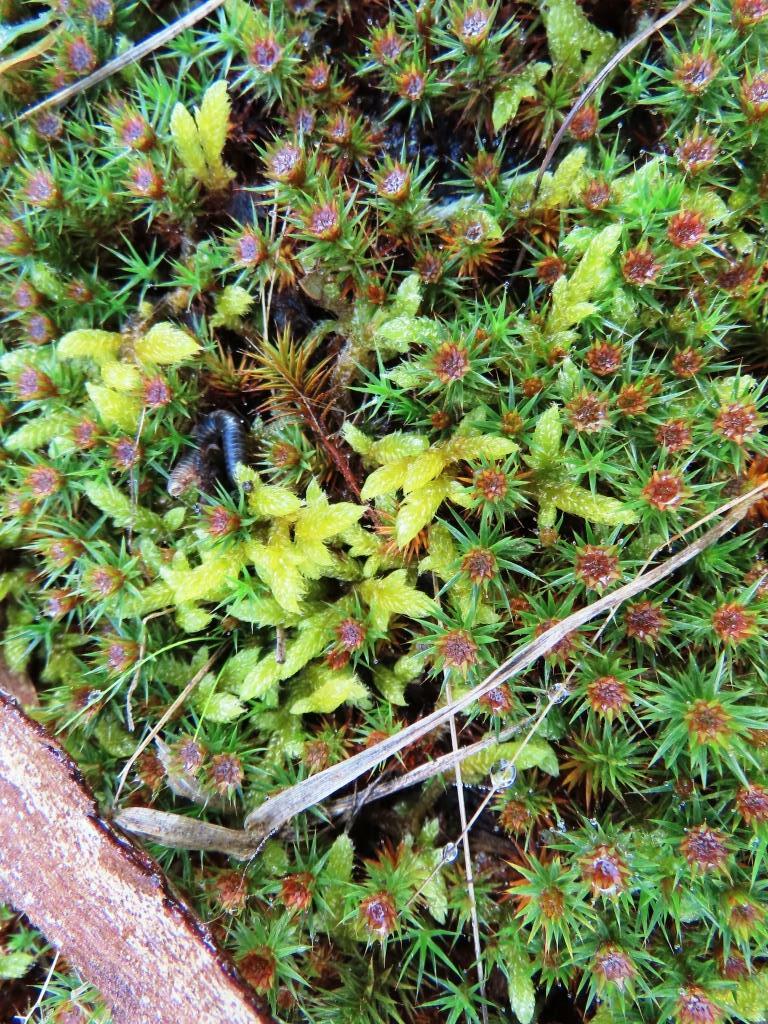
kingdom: Plantae
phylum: Bryophyta
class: Polytrichopsida
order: Polytrichales
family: Polytrichaceae
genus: Polytrichum
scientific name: Polytrichum juniperinum
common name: Juniper haircap moss
